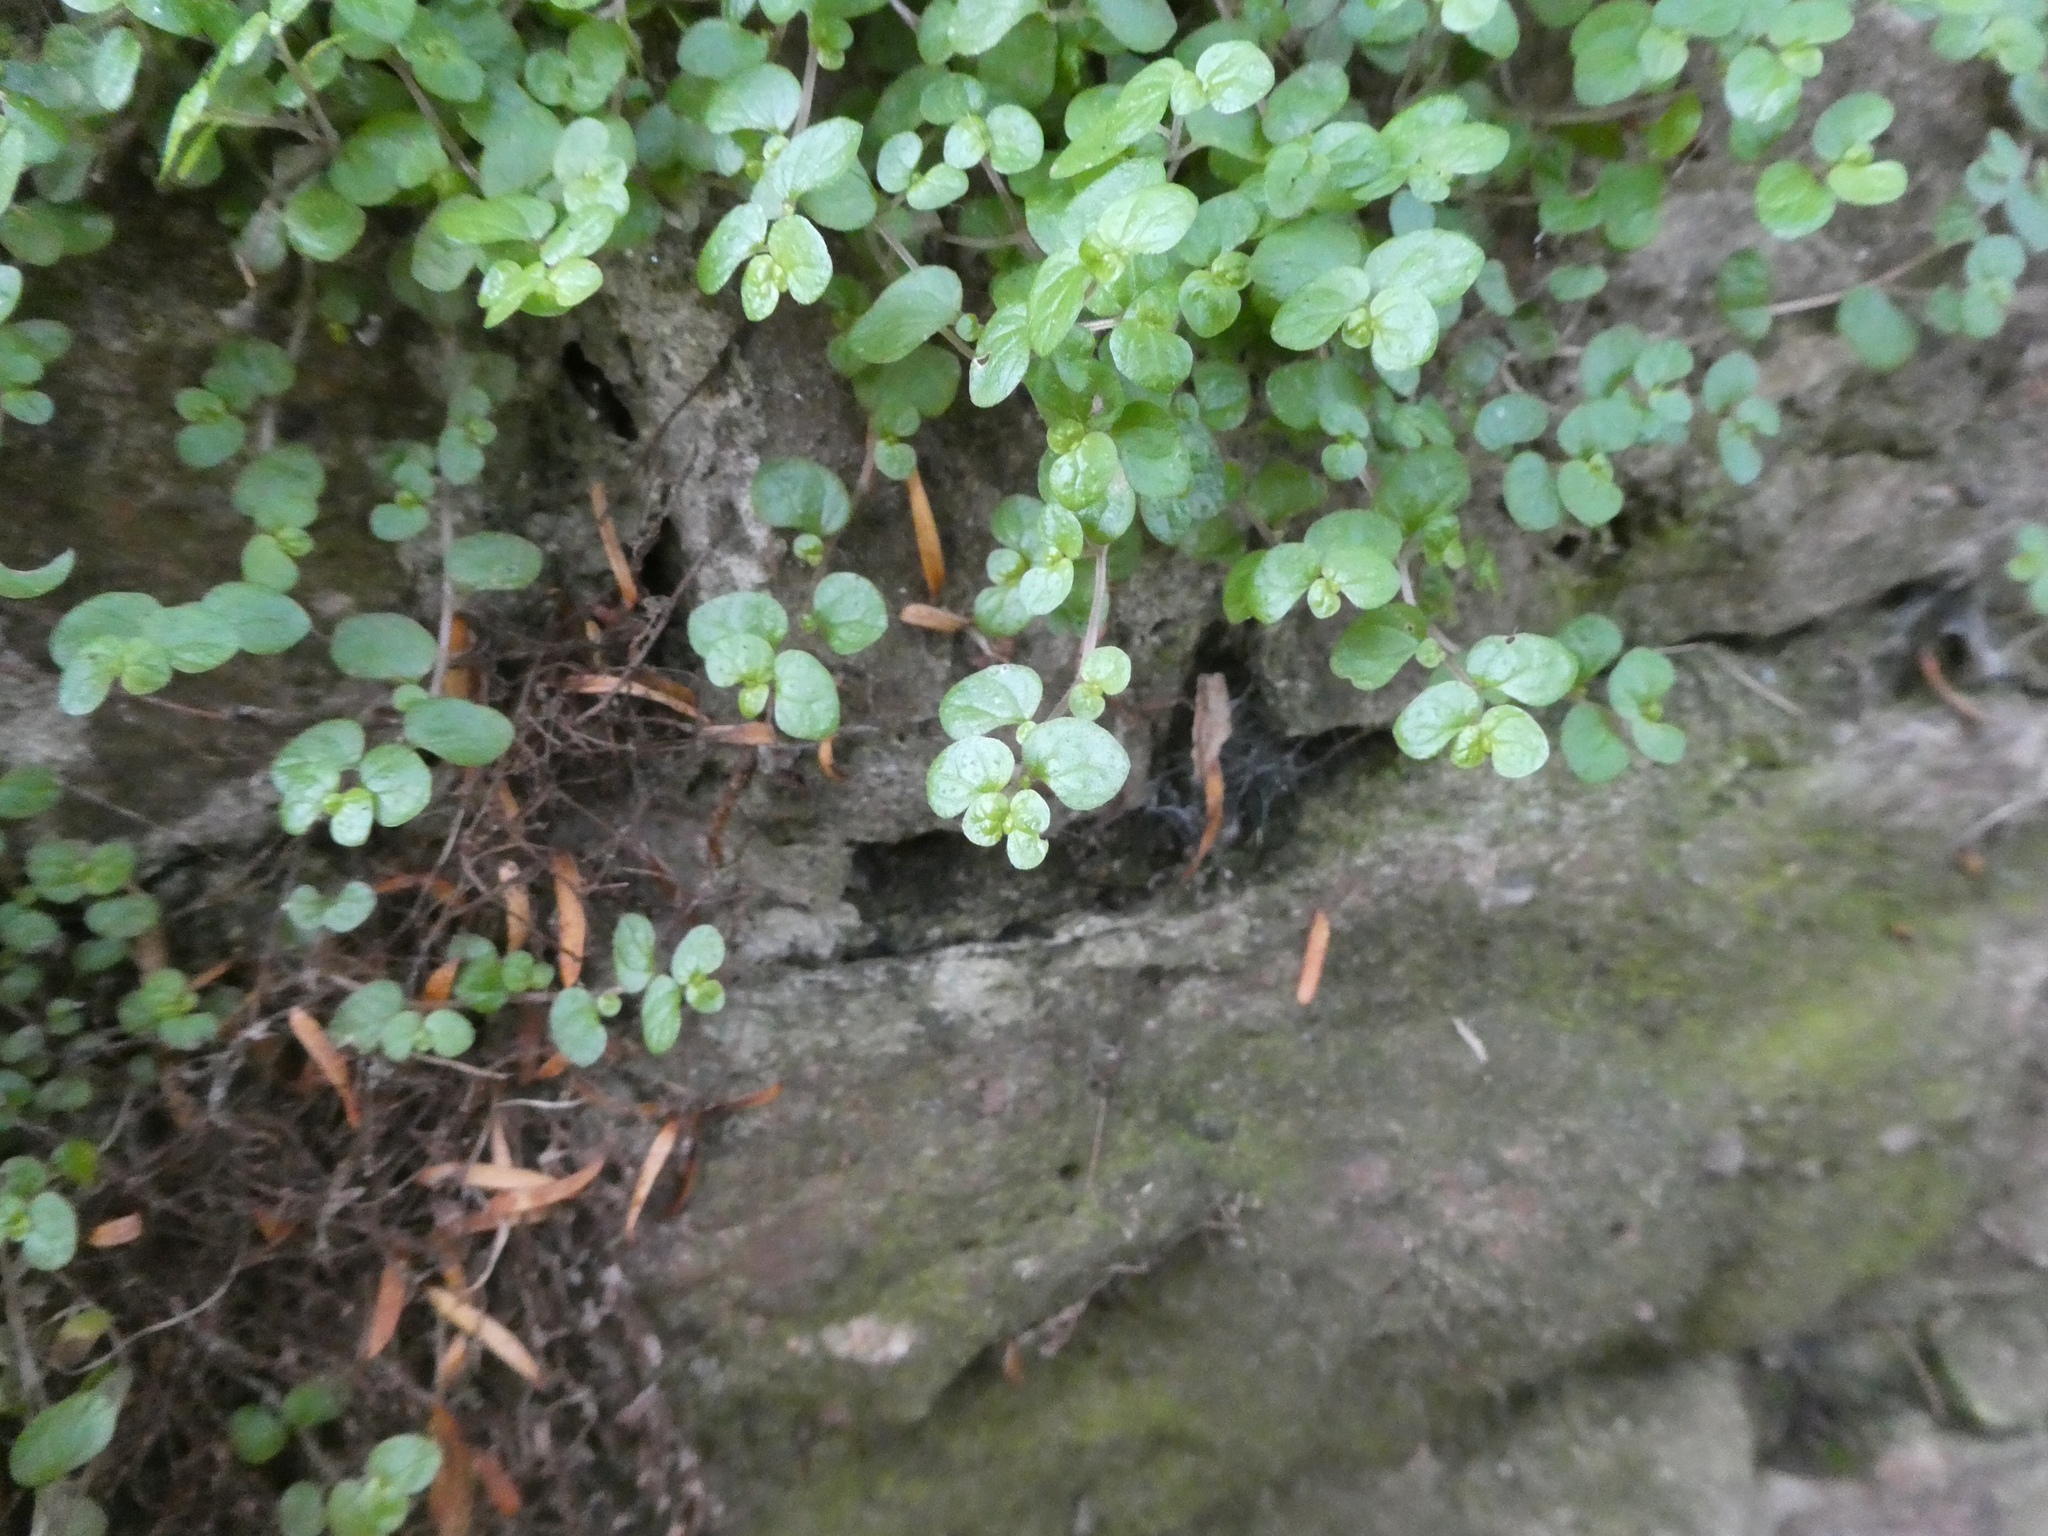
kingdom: Plantae
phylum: Tracheophyta
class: Magnoliopsida
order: Rosales
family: Urticaceae
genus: Soleirolia
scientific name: Soleirolia soleirolii
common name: Mind-your-own-business
